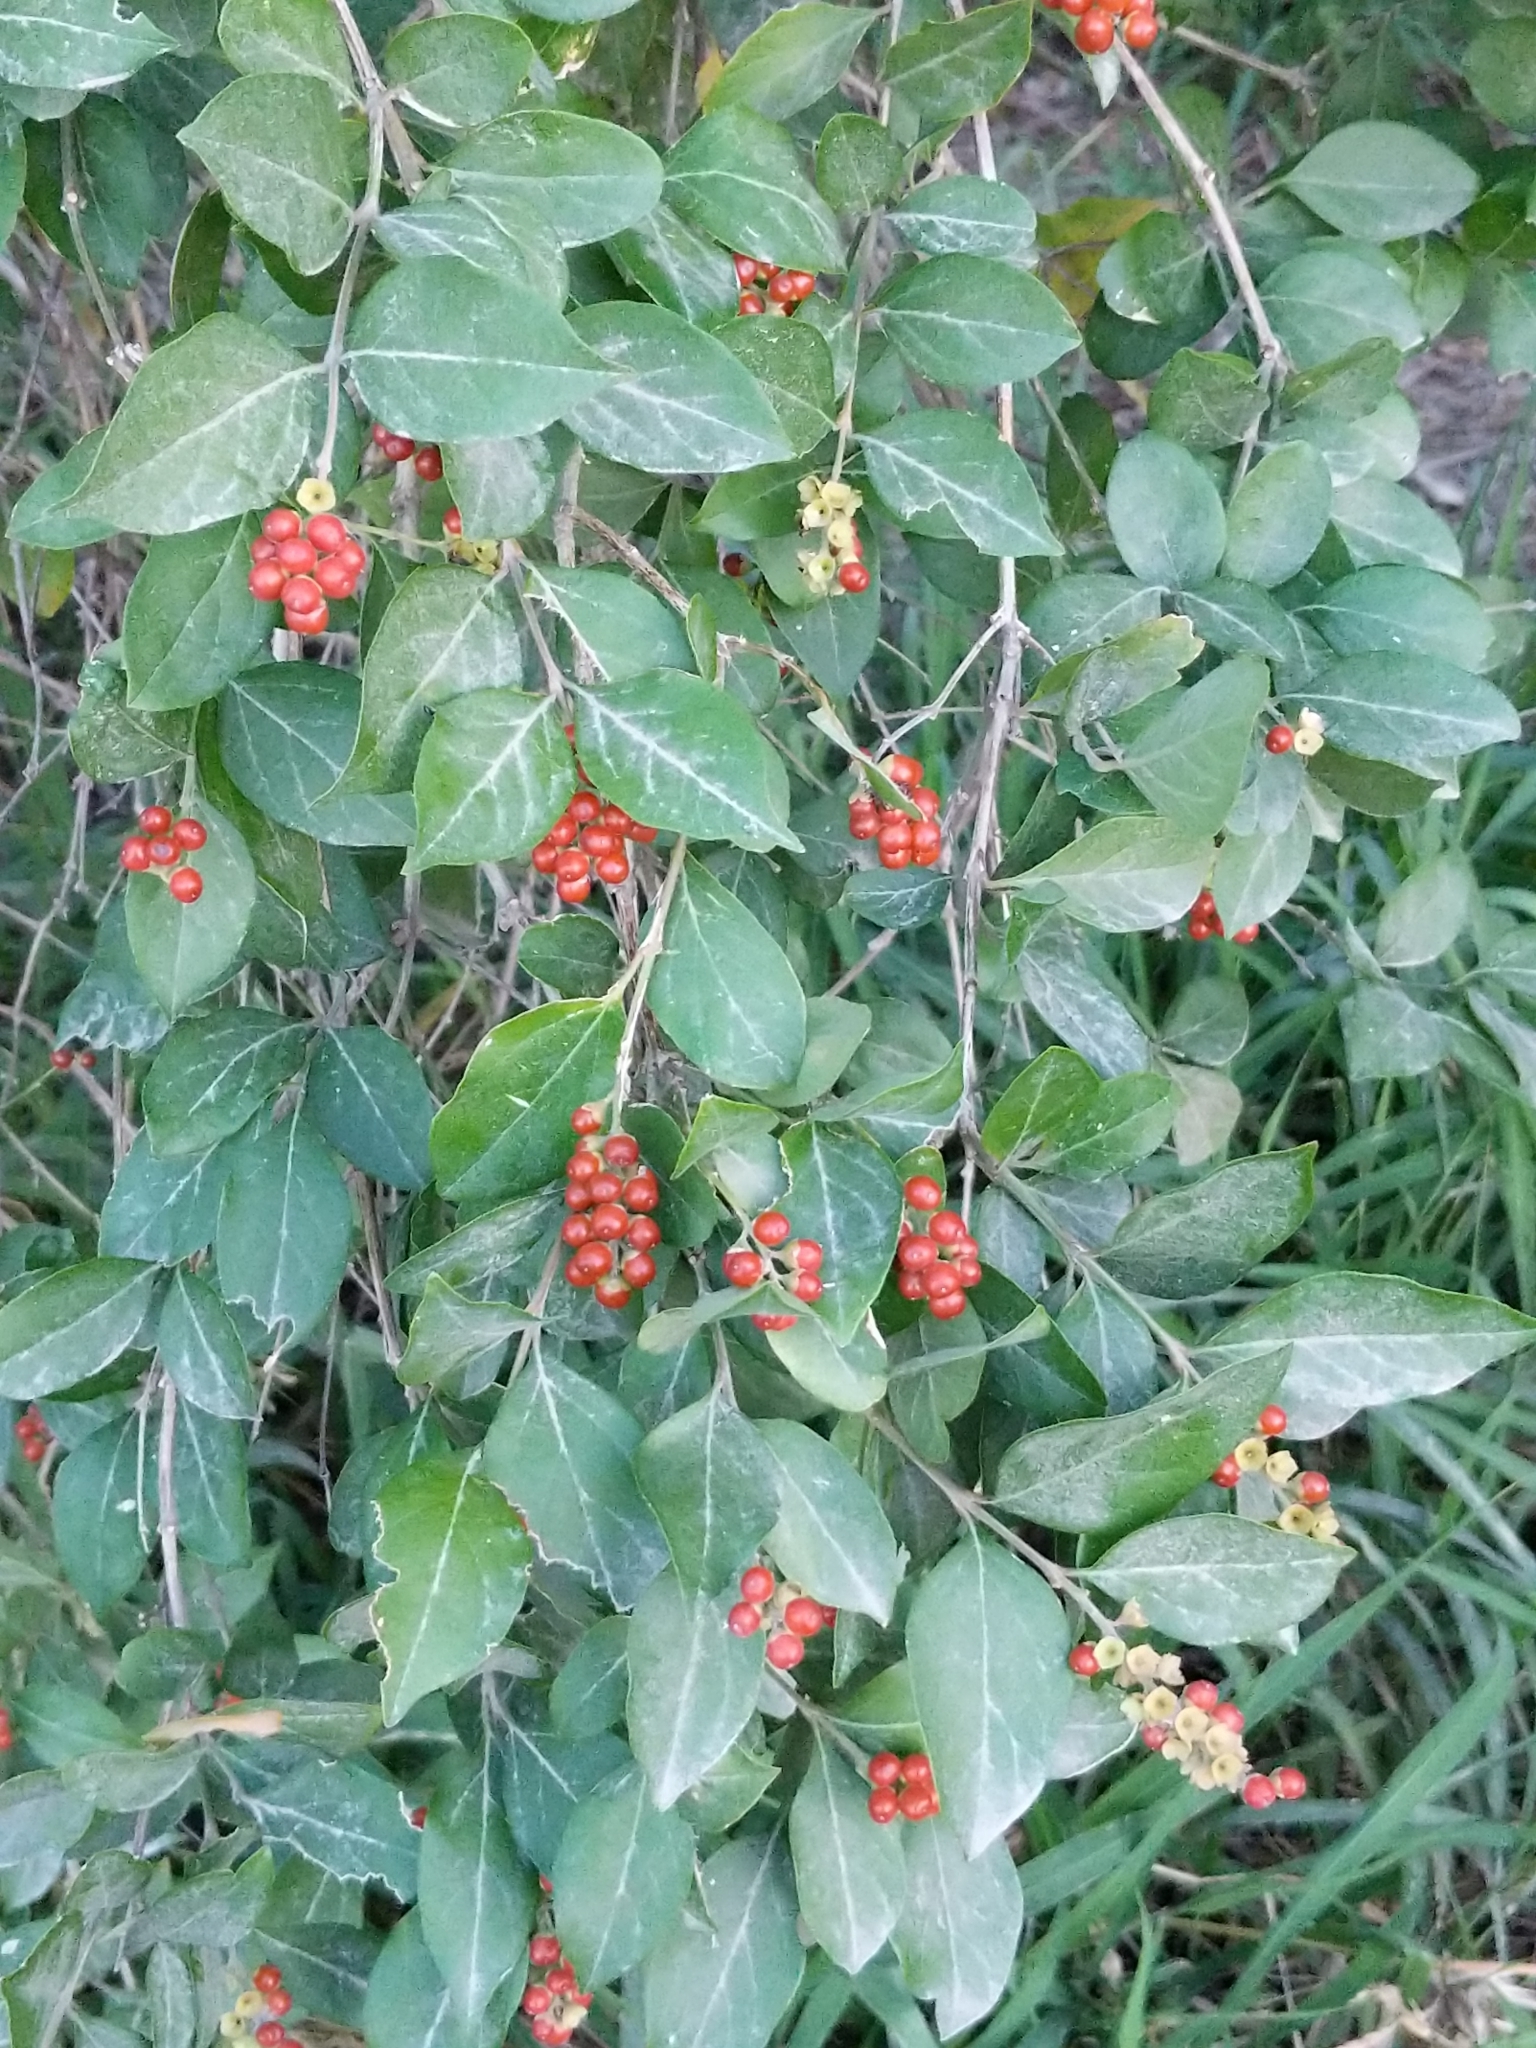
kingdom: Plantae
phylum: Tracheophyta
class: Magnoliopsida
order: Lamiales
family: Verbenaceae
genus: Citharexylum
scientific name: Citharexylum berlandieri
